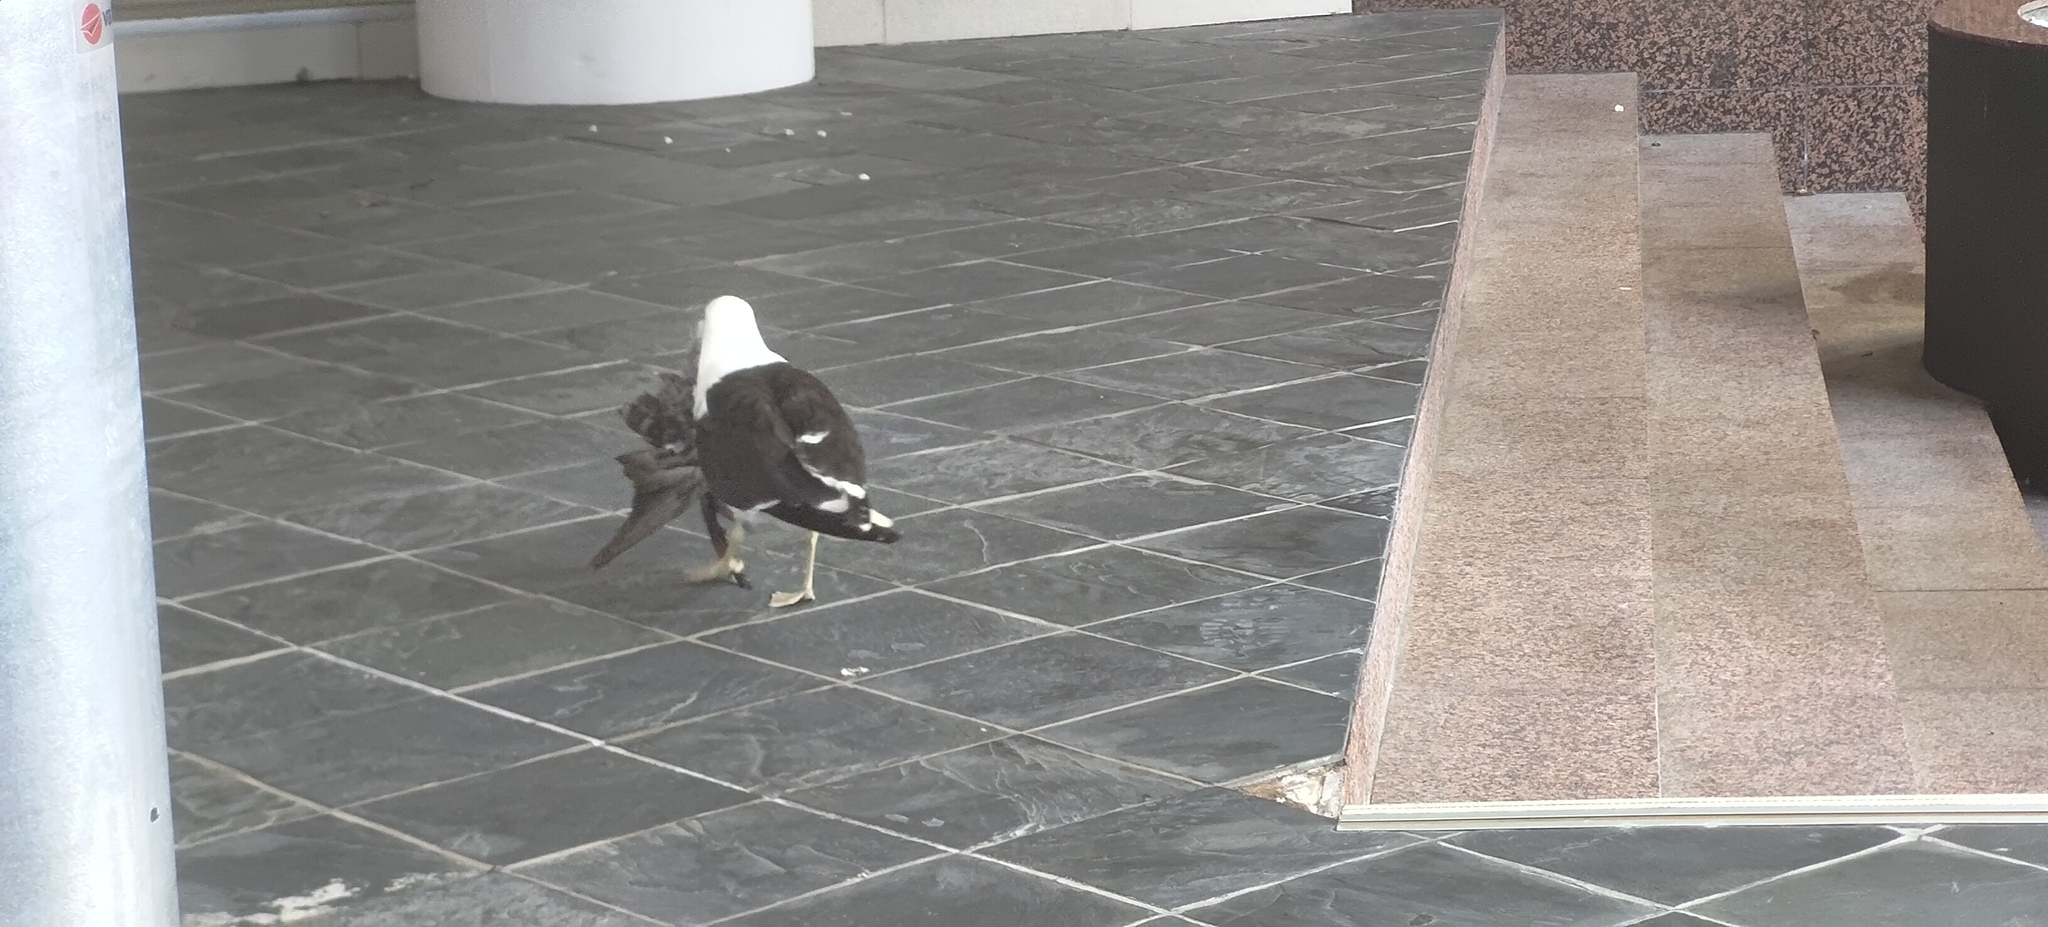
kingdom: Animalia
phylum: Chordata
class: Aves
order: Charadriiformes
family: Laridae
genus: Larus
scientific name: Larus dominicanus
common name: Kelp gull
